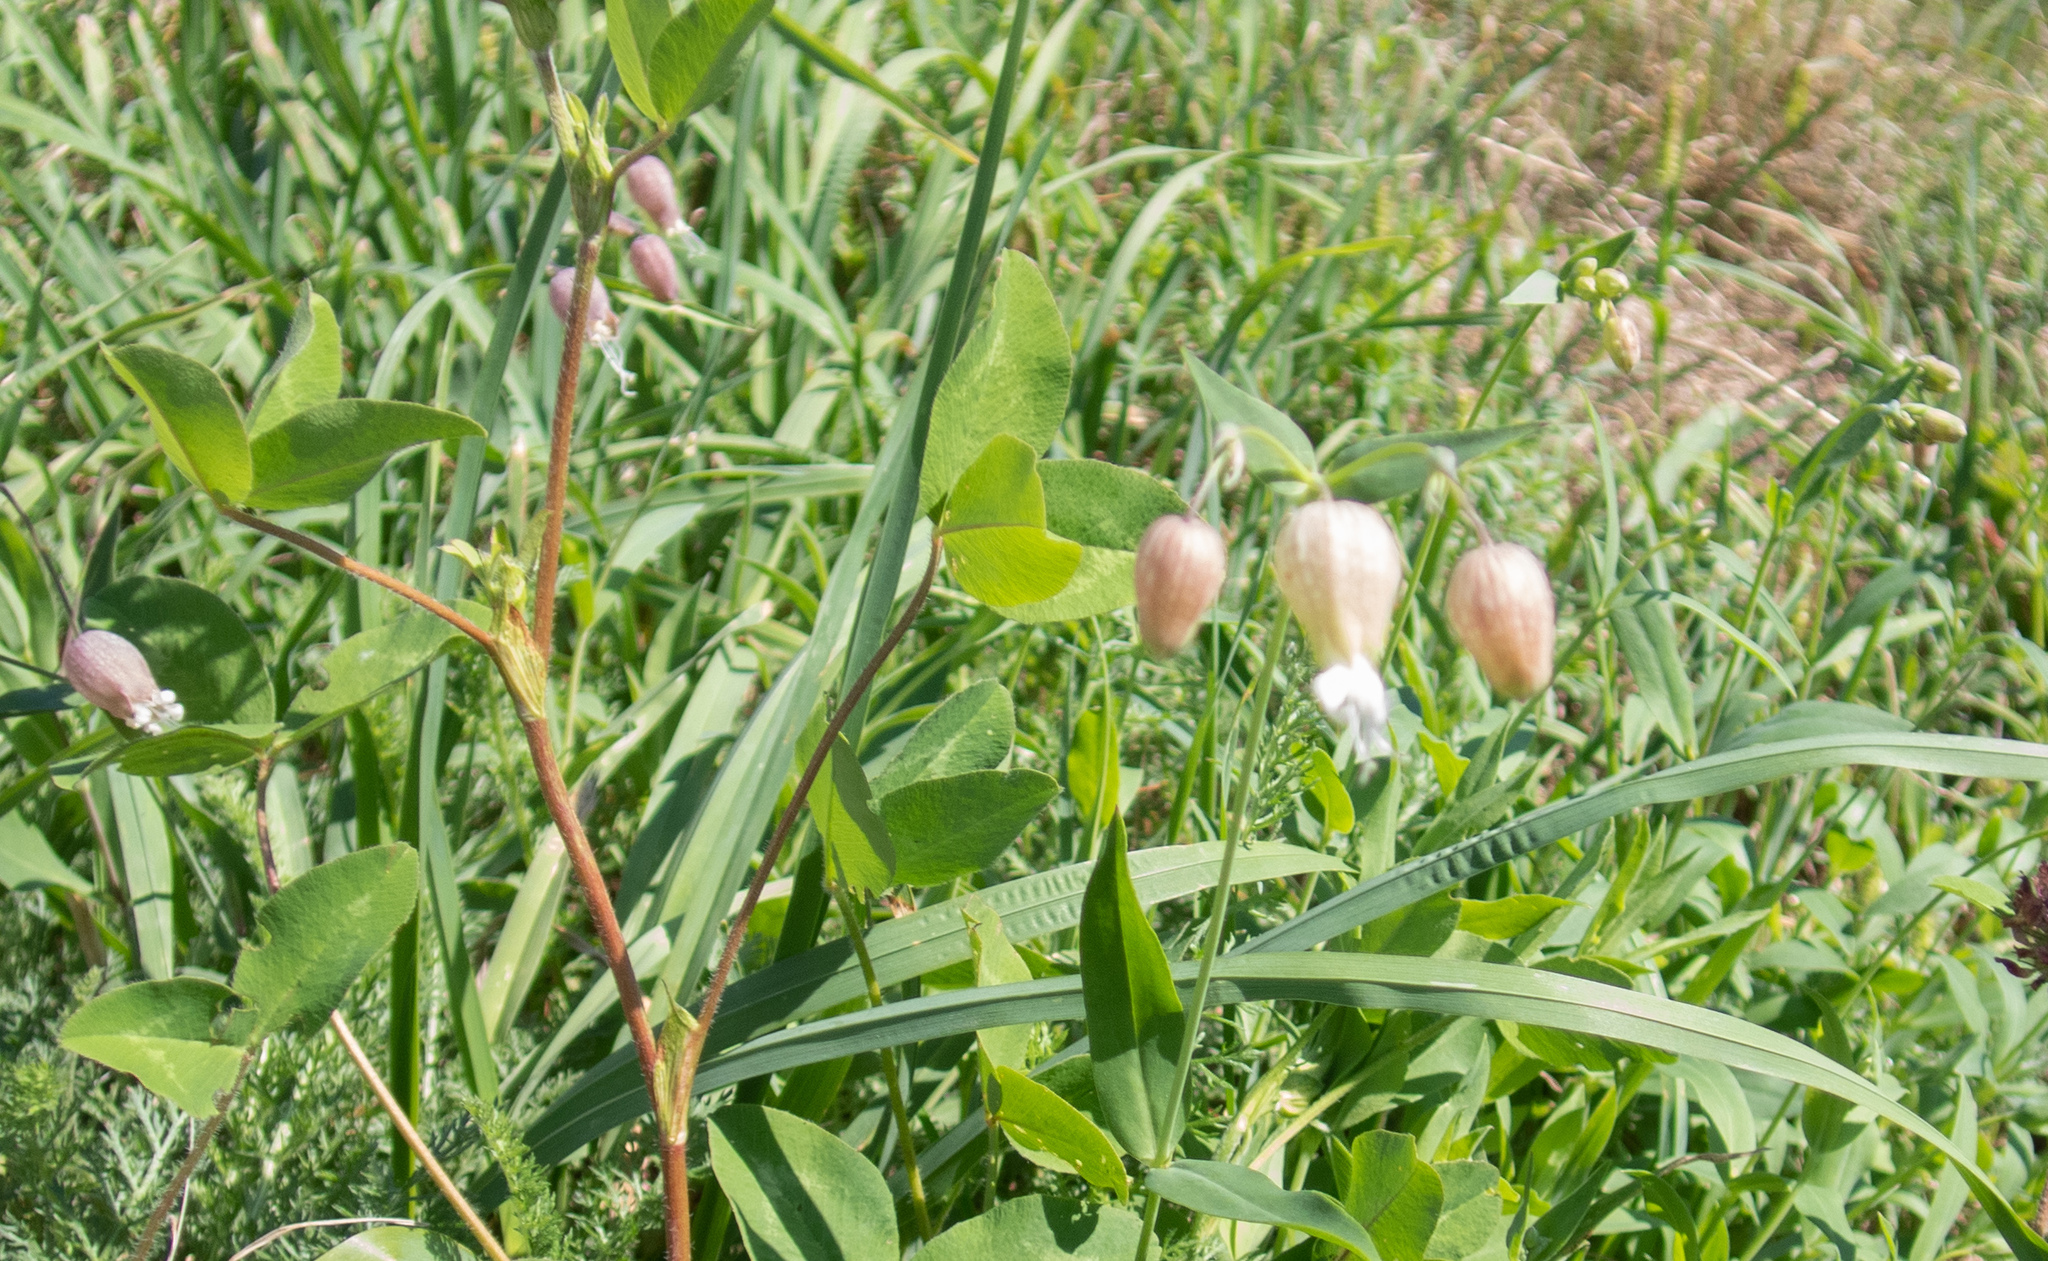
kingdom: Plantae
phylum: Tracheophyta
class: Magnoliopsida
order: Caryophyllales
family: Caryophyllaceae
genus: Silene
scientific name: Silene vulgaris
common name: Bladder campion
